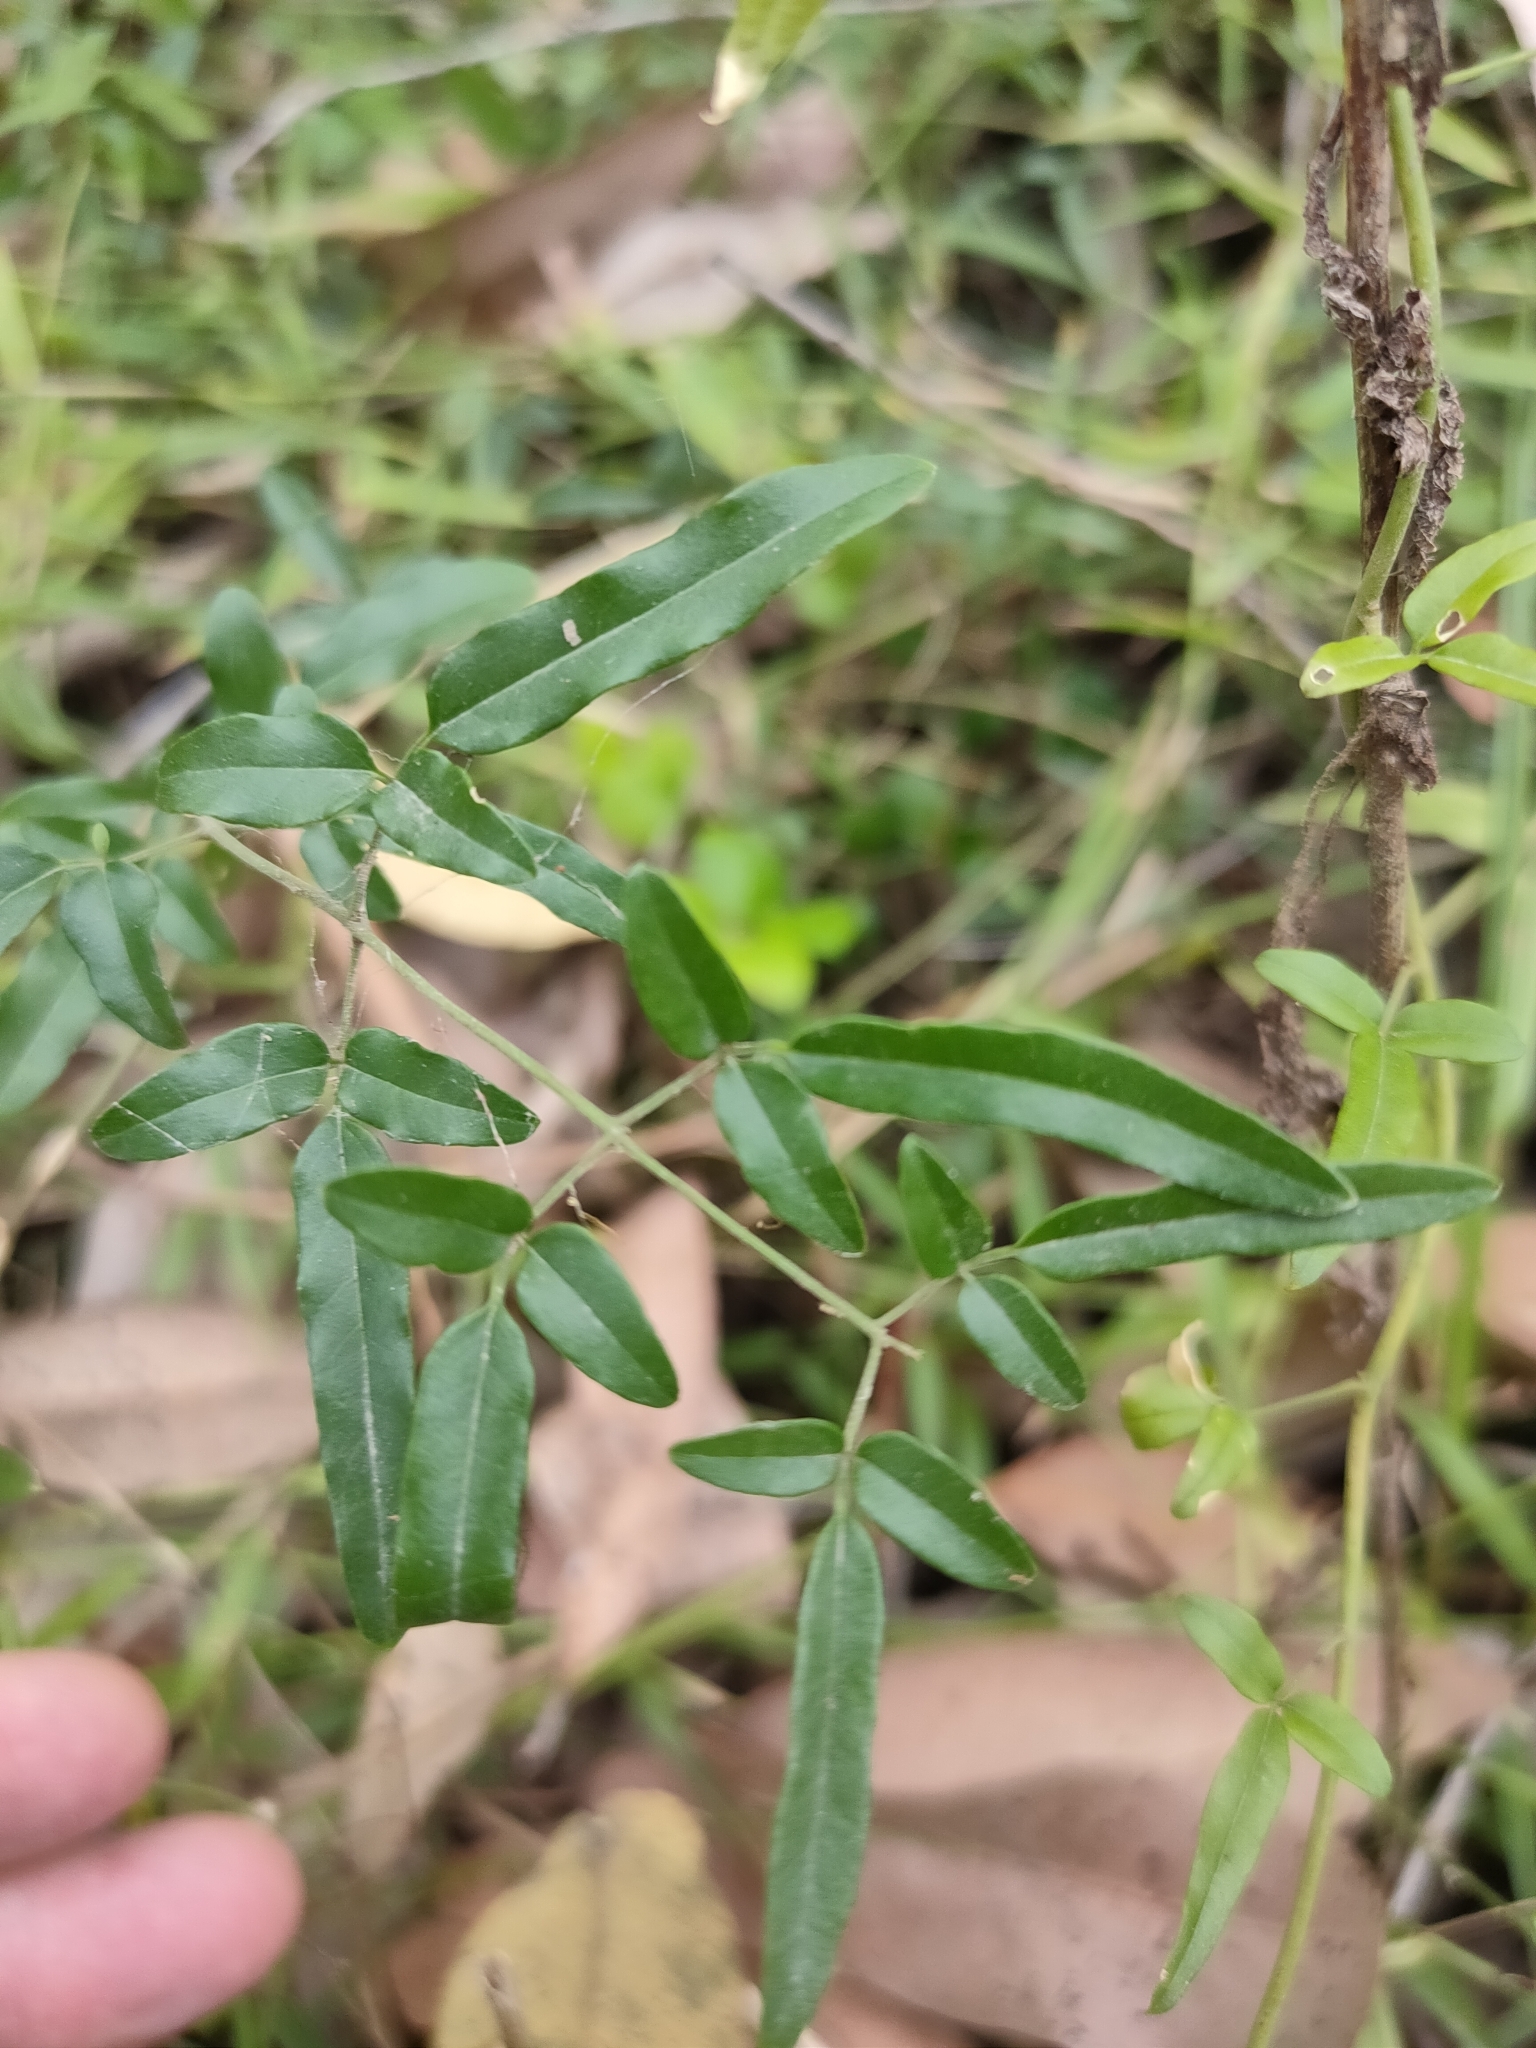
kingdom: Plantae
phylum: Tracheophyta
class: Magnoliopsida
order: Lamiales
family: Oleaceae
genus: Jasminum
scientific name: Jasminum didymum
